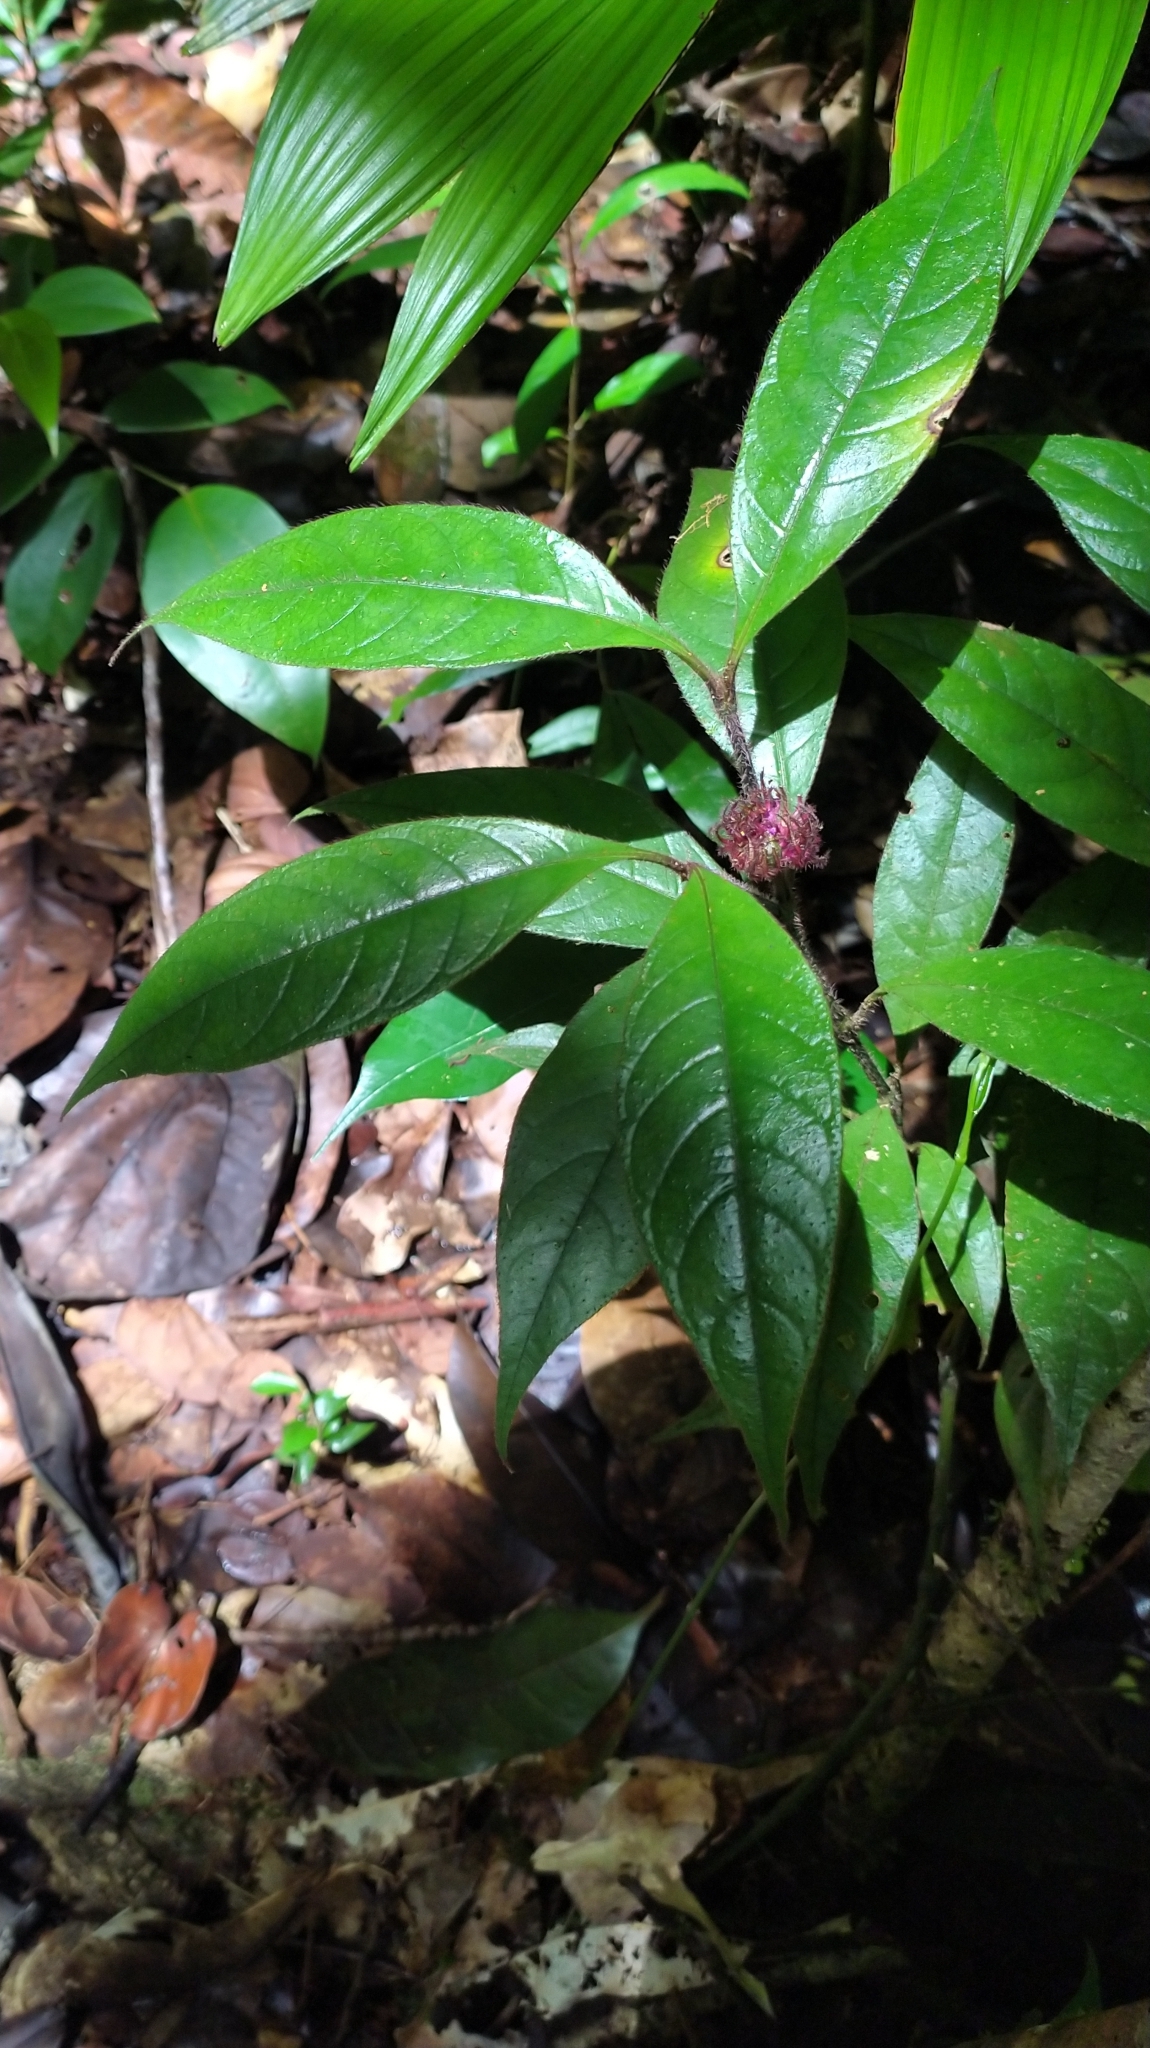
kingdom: Plantae
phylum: Tracheophyta
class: Magnoliopsida
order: Gentianales
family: Rubiaceae
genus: Palicourea
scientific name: Palicourea glabra
